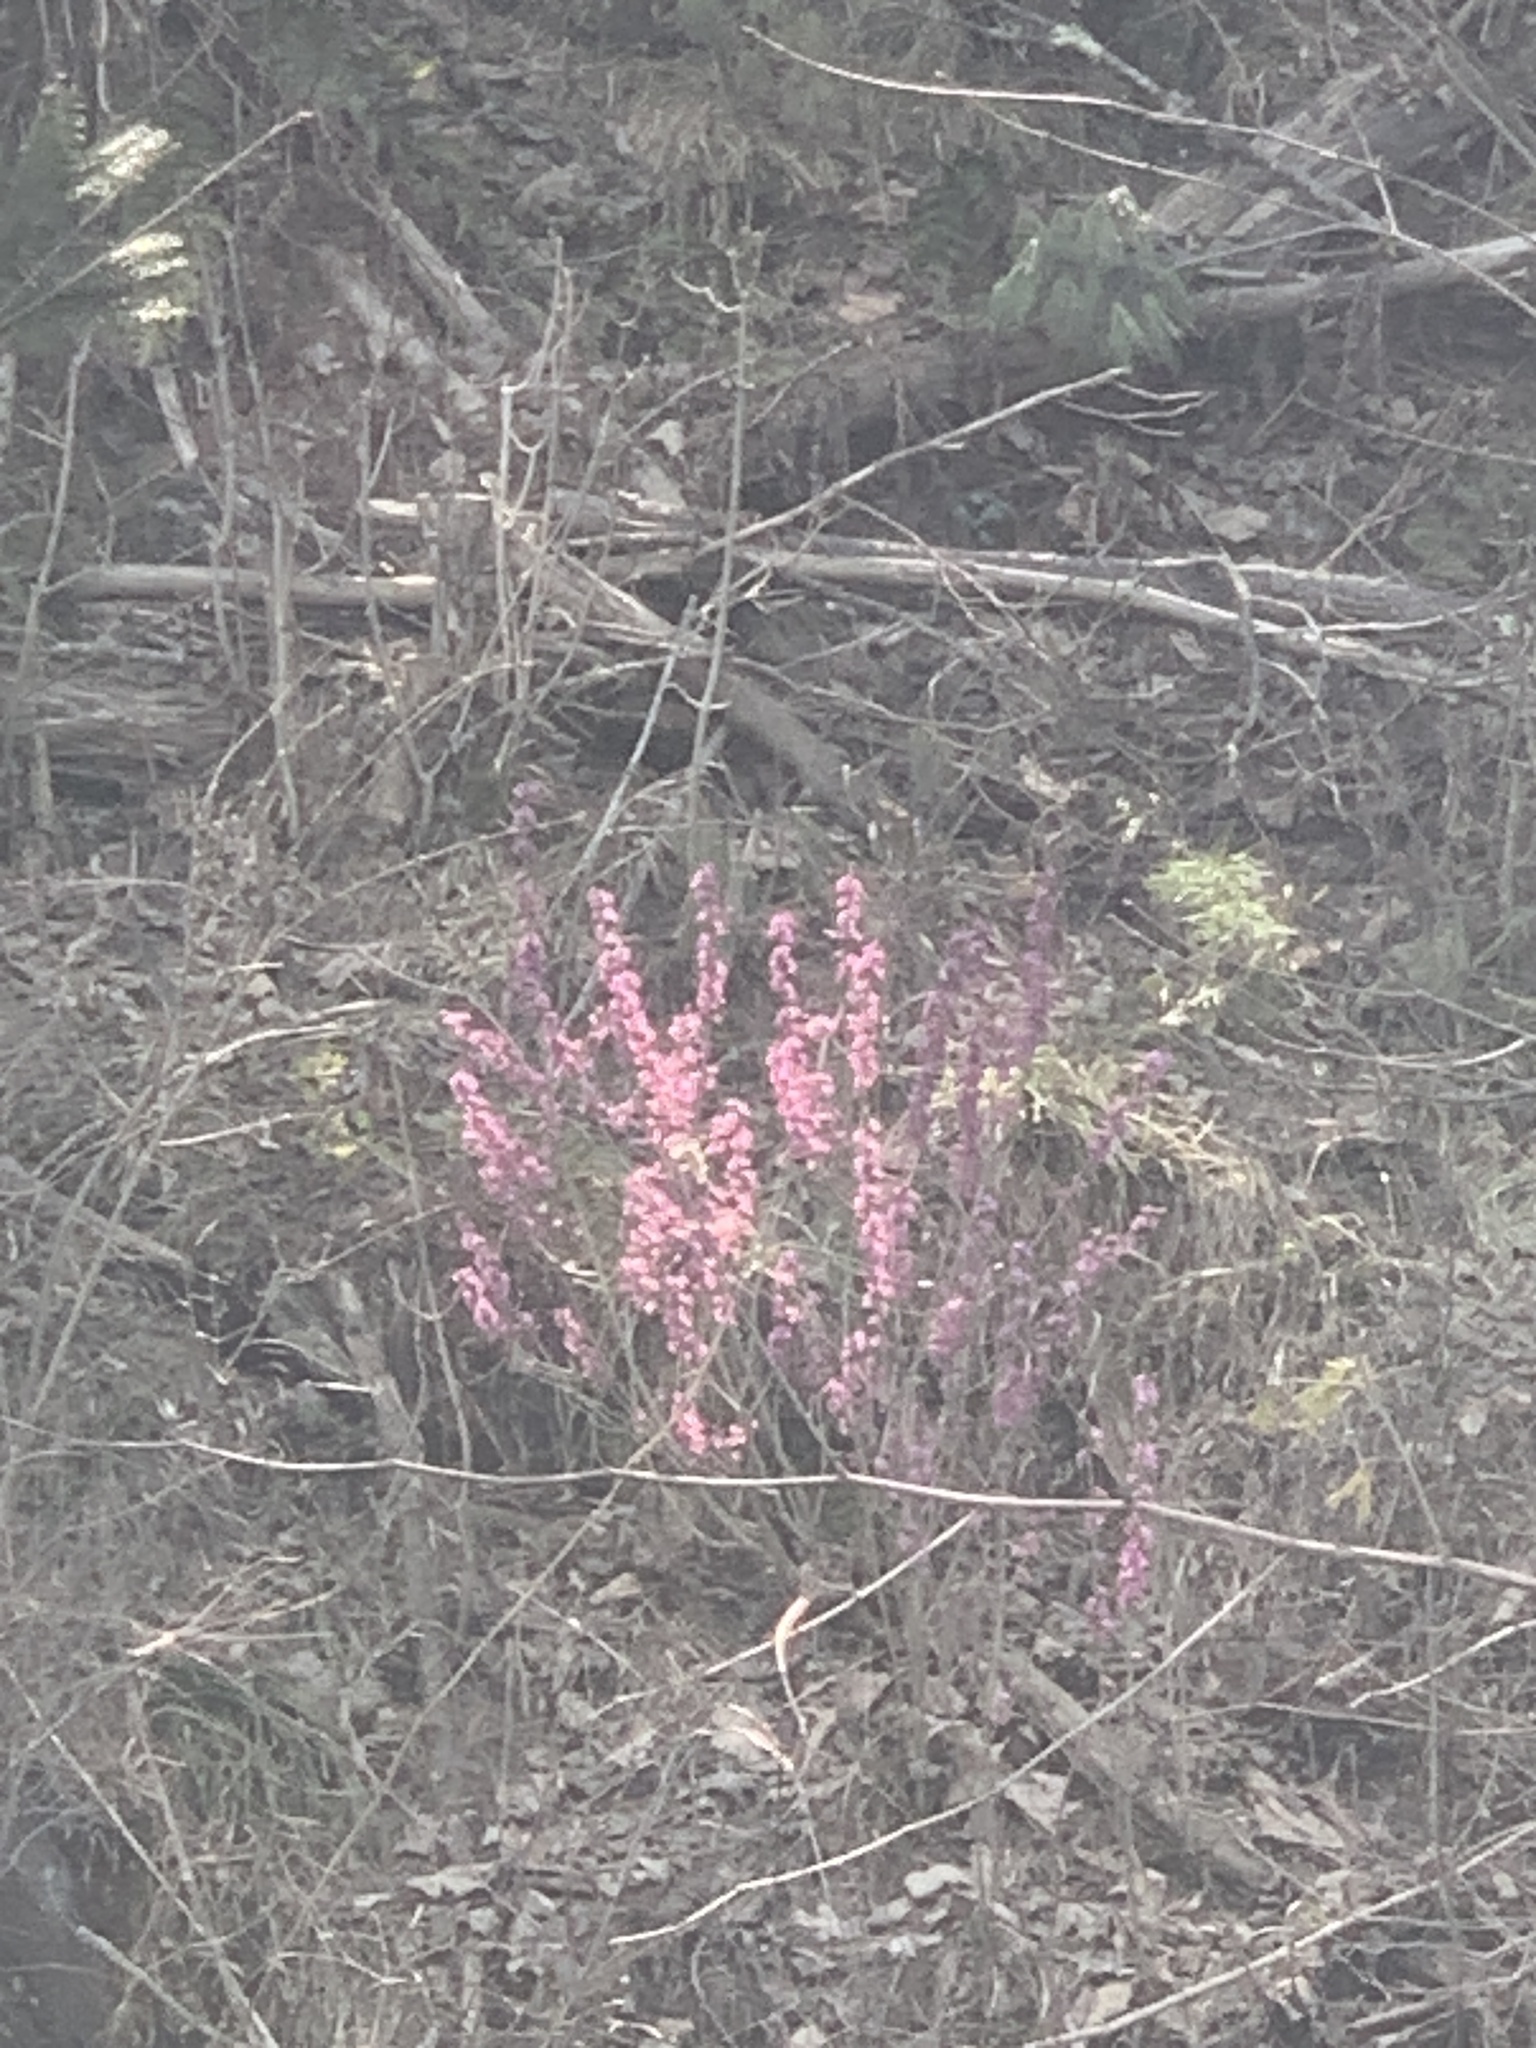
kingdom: Plantae
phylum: Tracheophyta
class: Magnoliopsida
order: Malvales
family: Thymelaeaceae
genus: Daphne
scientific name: Daphne mezereum
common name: Mezereon
